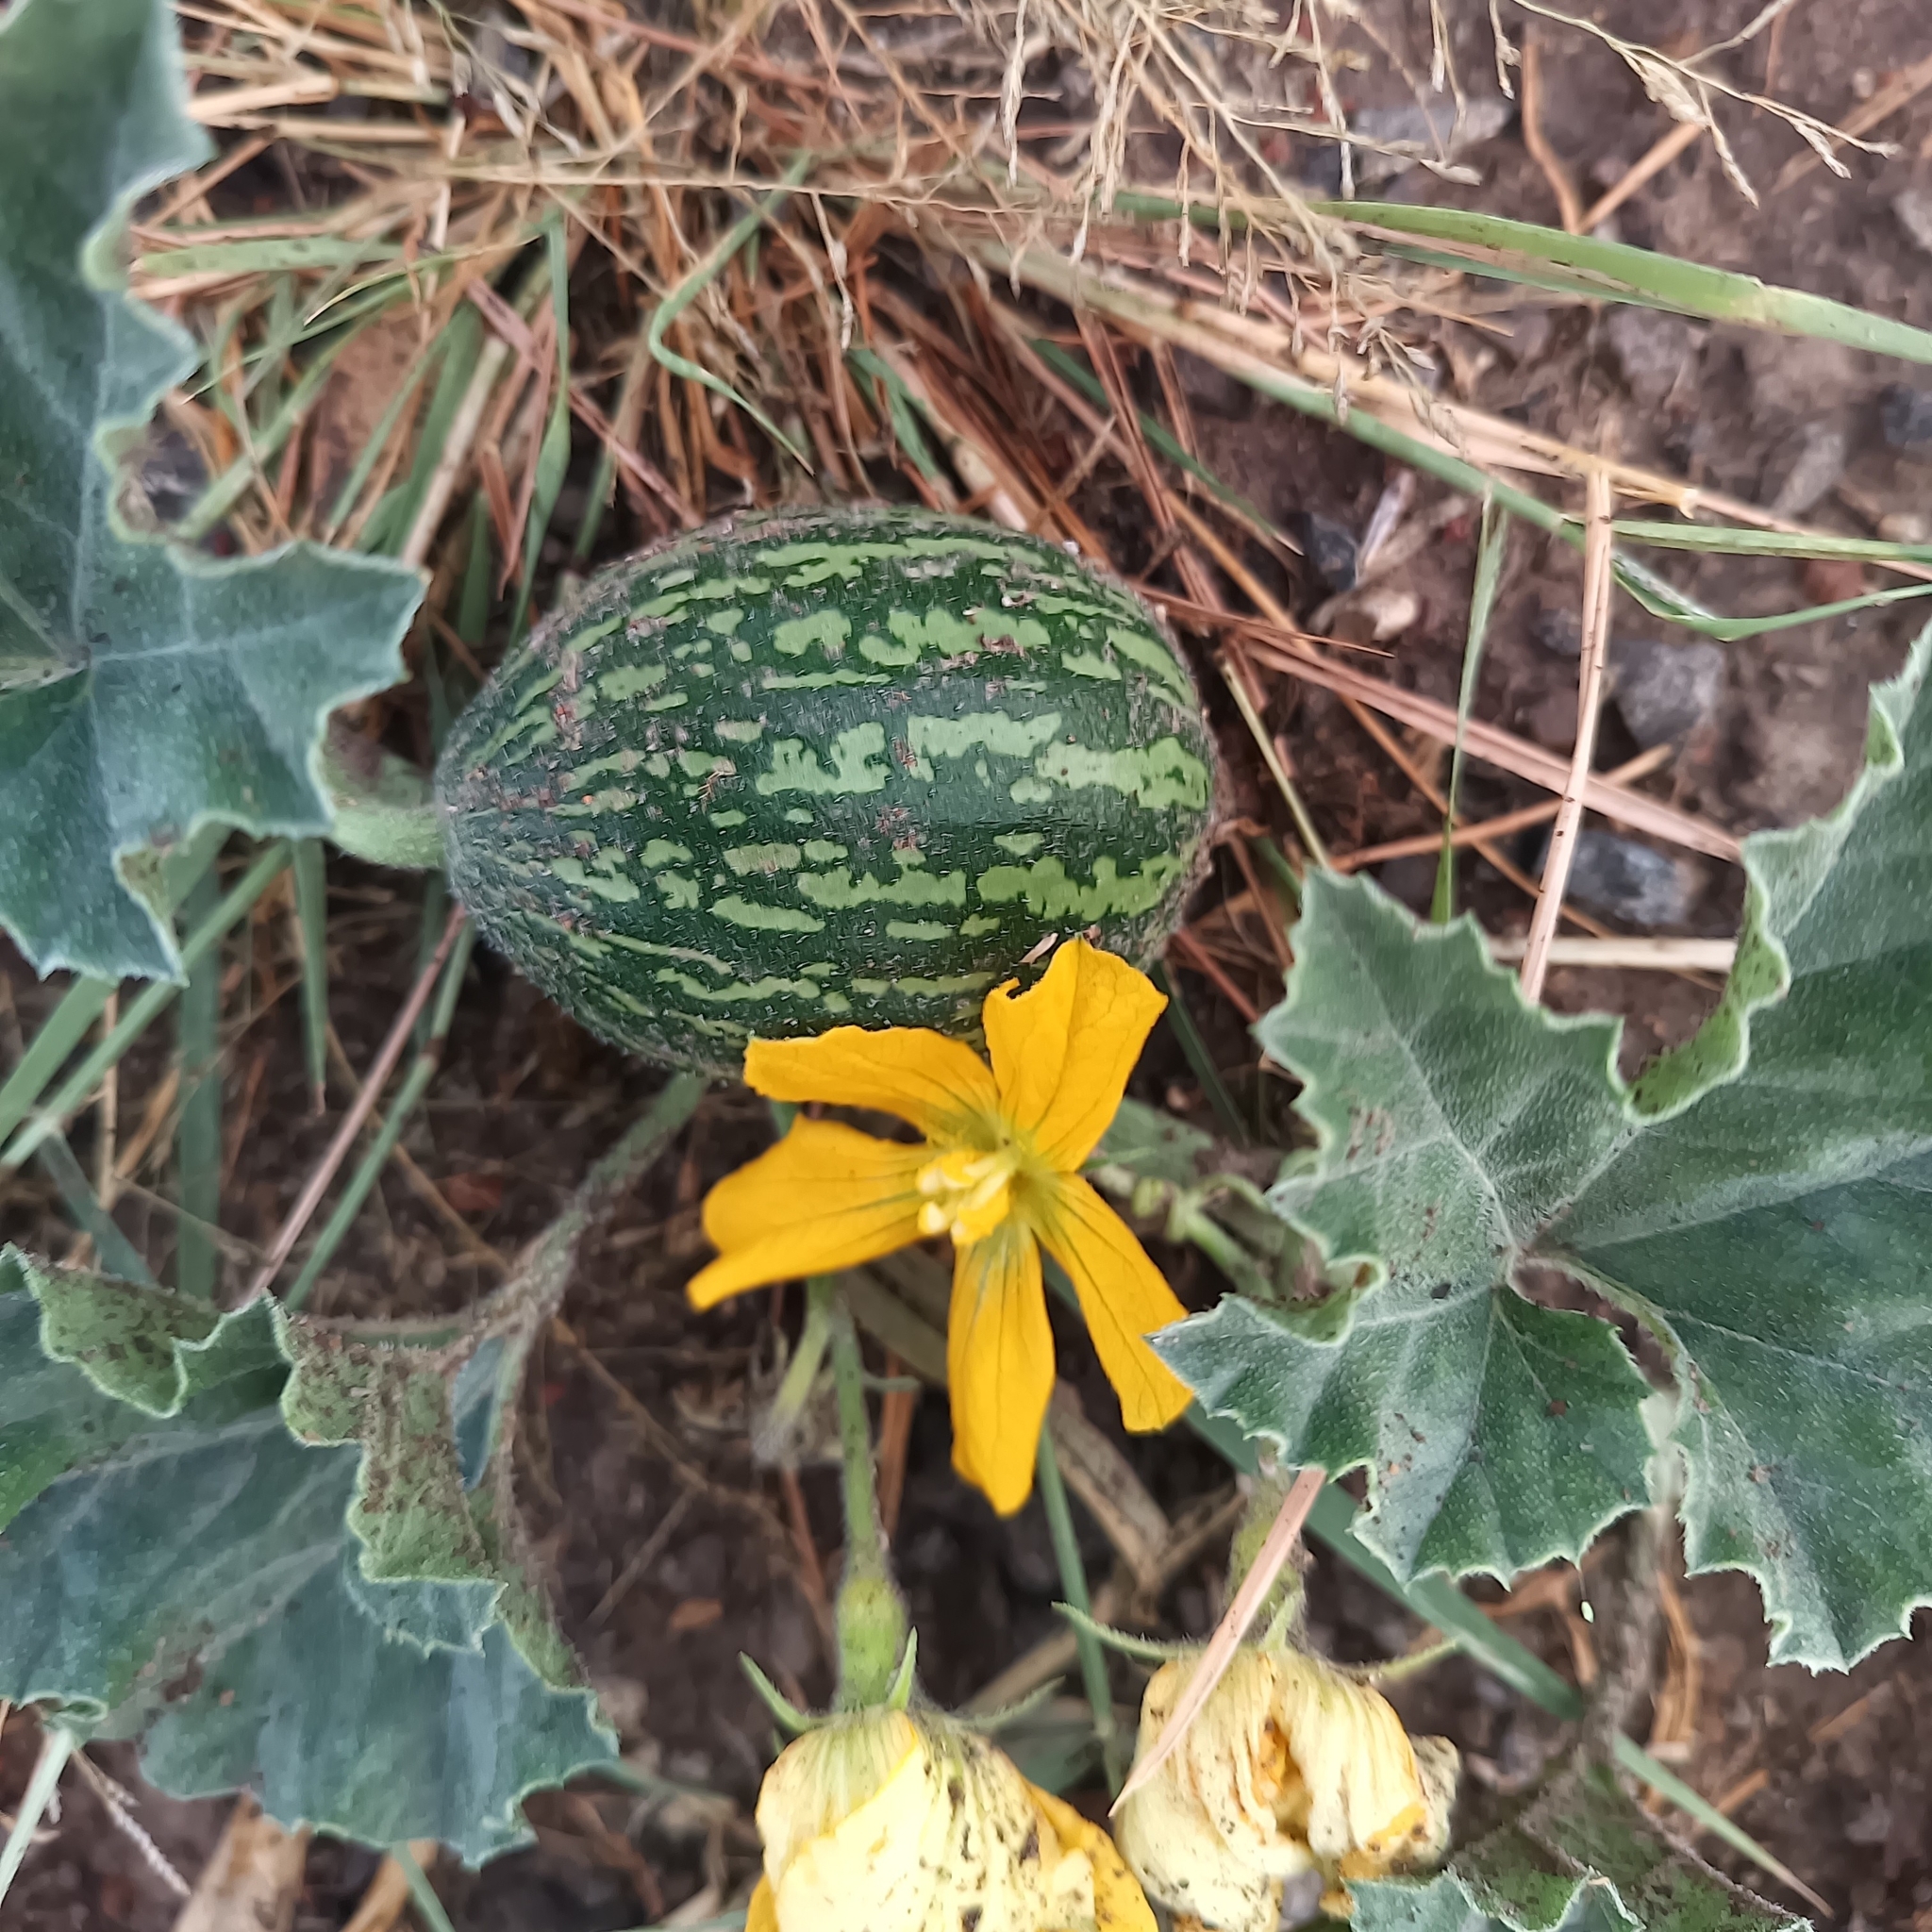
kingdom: Plantae
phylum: Tracheophyta
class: Magnoliopsida
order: Cucurbitales
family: Cucurbitaceae
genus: Apodanthera
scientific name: Apodanthera undulata
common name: Melon-loco
